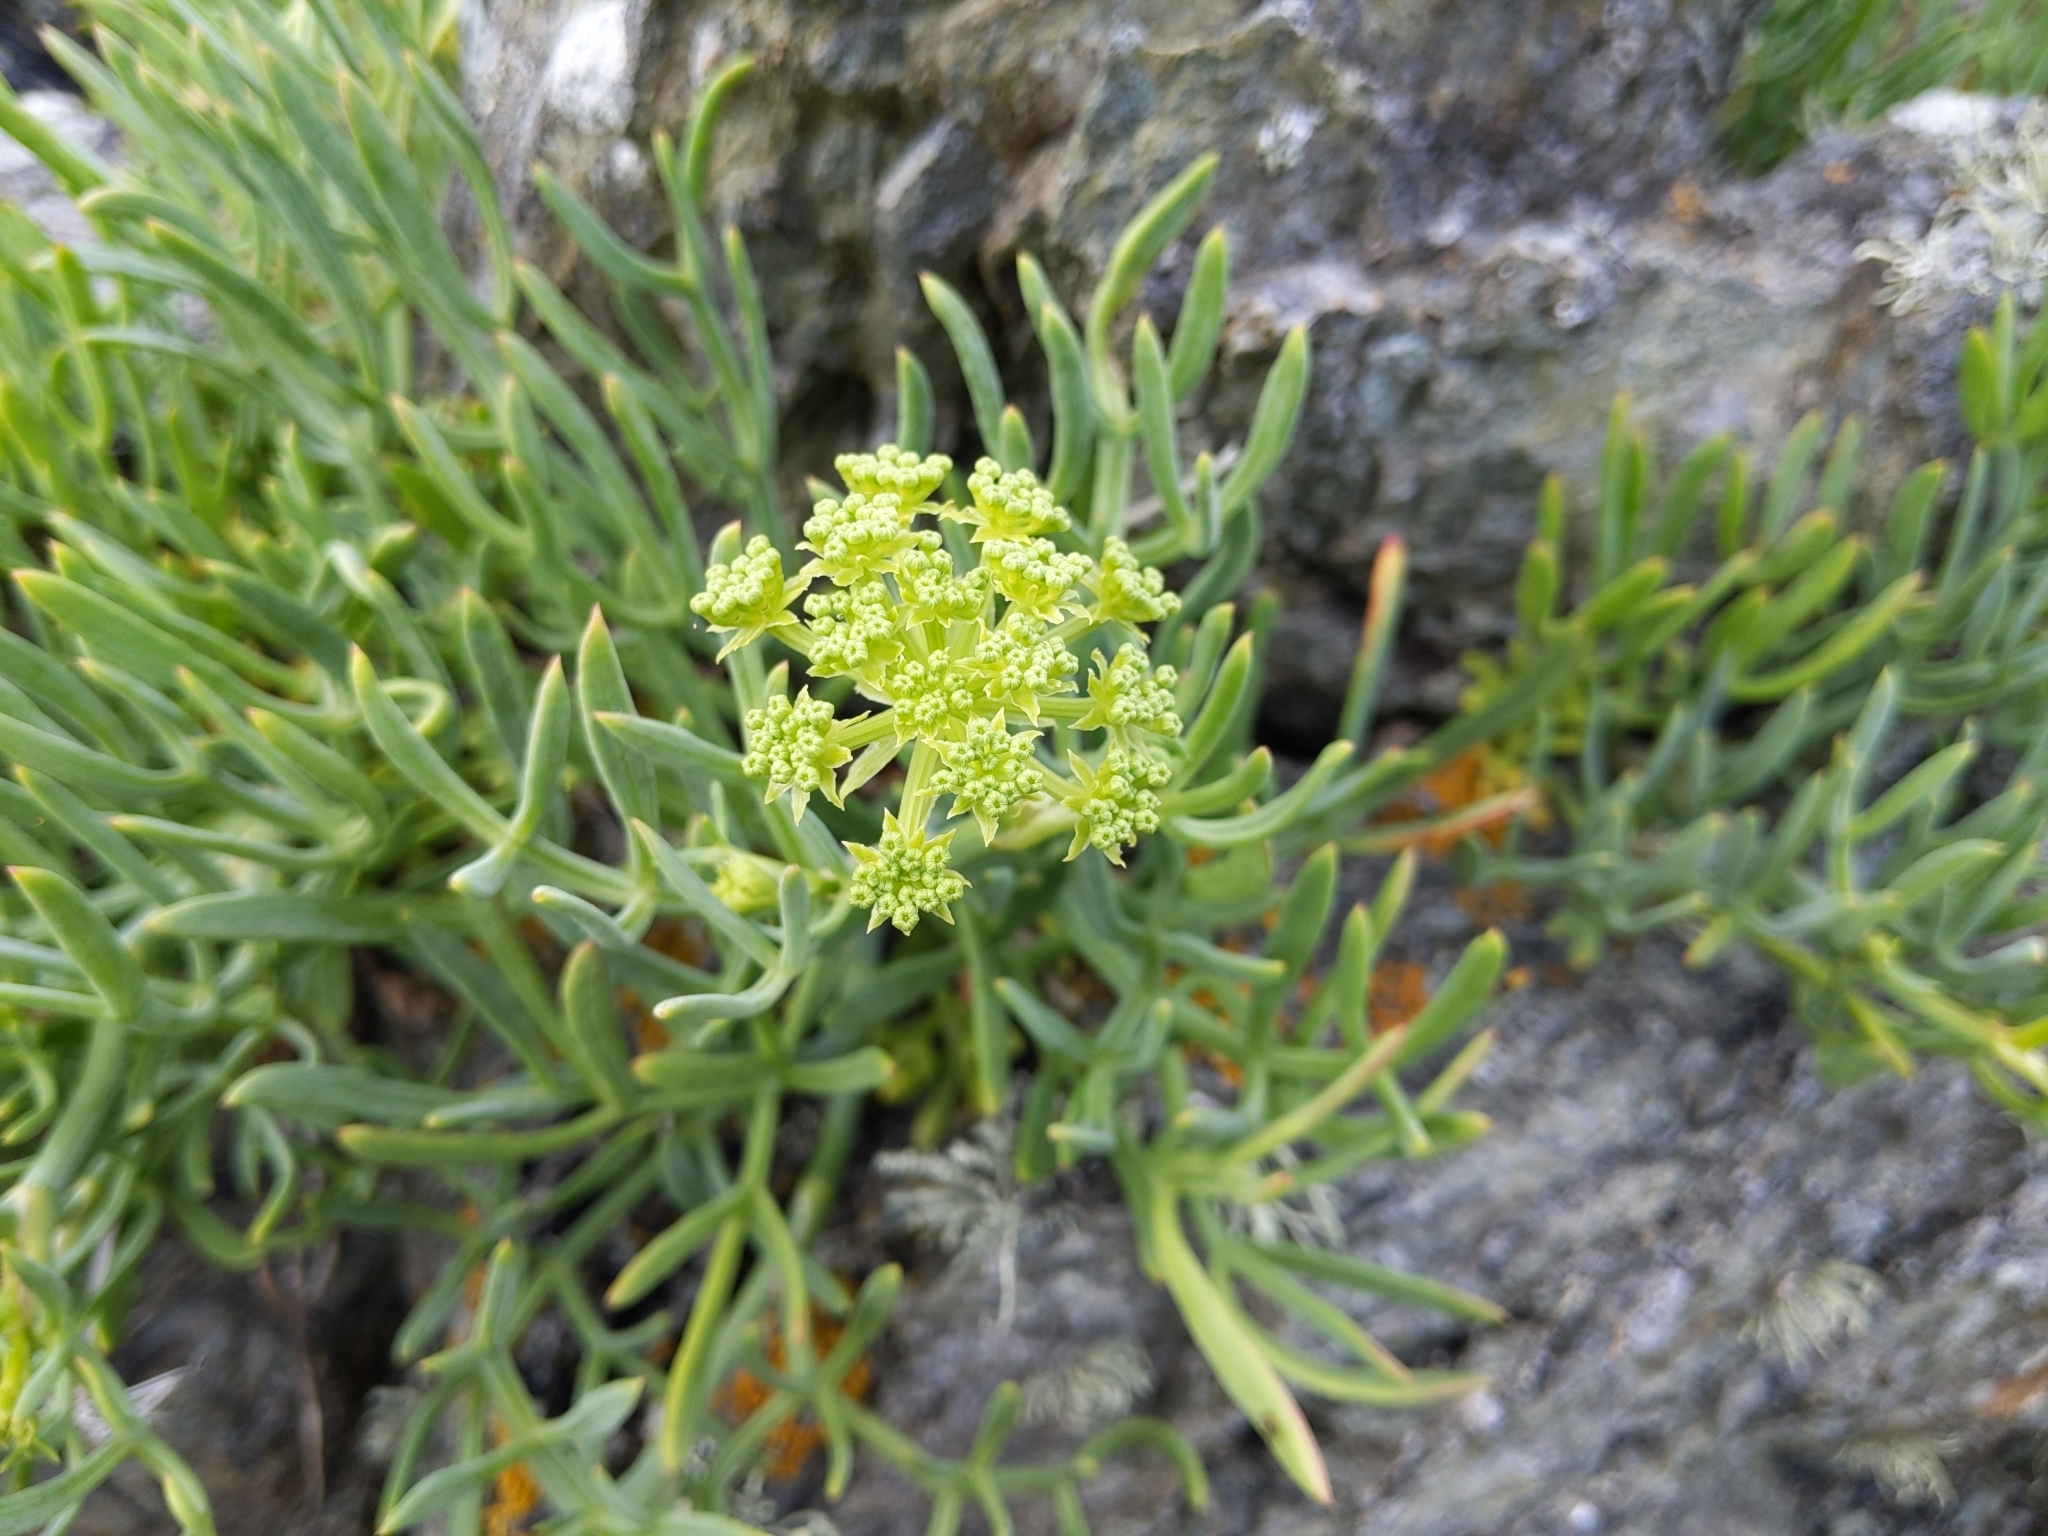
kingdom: Plantae
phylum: Tracheophyta
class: Magnoliopsida
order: Apiales
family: Apiaceae
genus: Crithmum
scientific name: Crithmum maritimum
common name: Rock samphire
